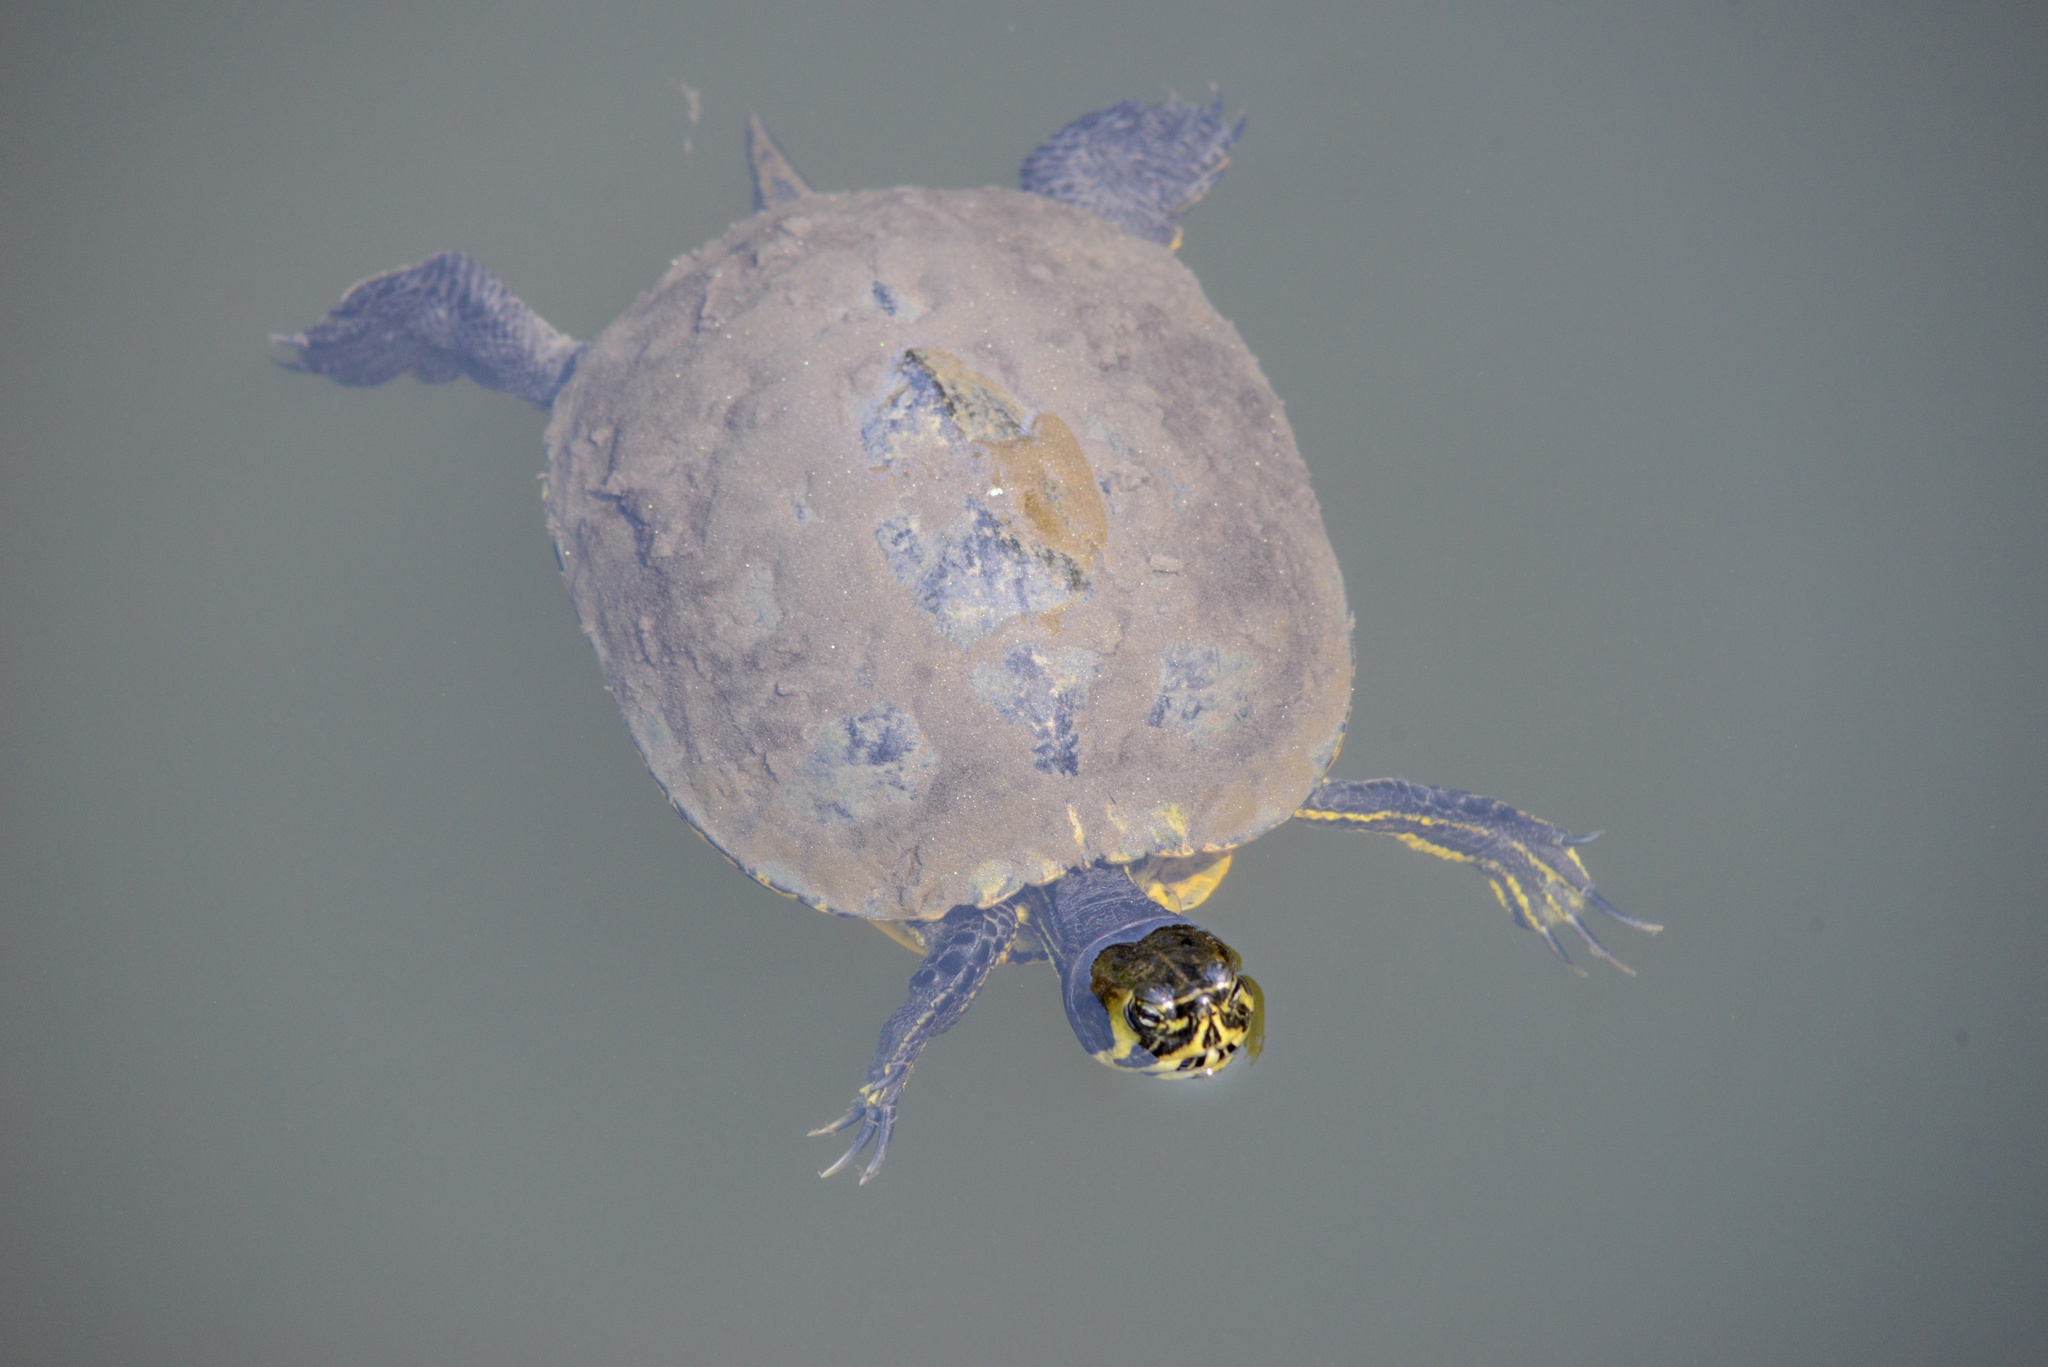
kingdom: Animalia
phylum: Chordata
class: Testudines
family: Emydidae
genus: Trachemys
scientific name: Trachemys scripta
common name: Slider
